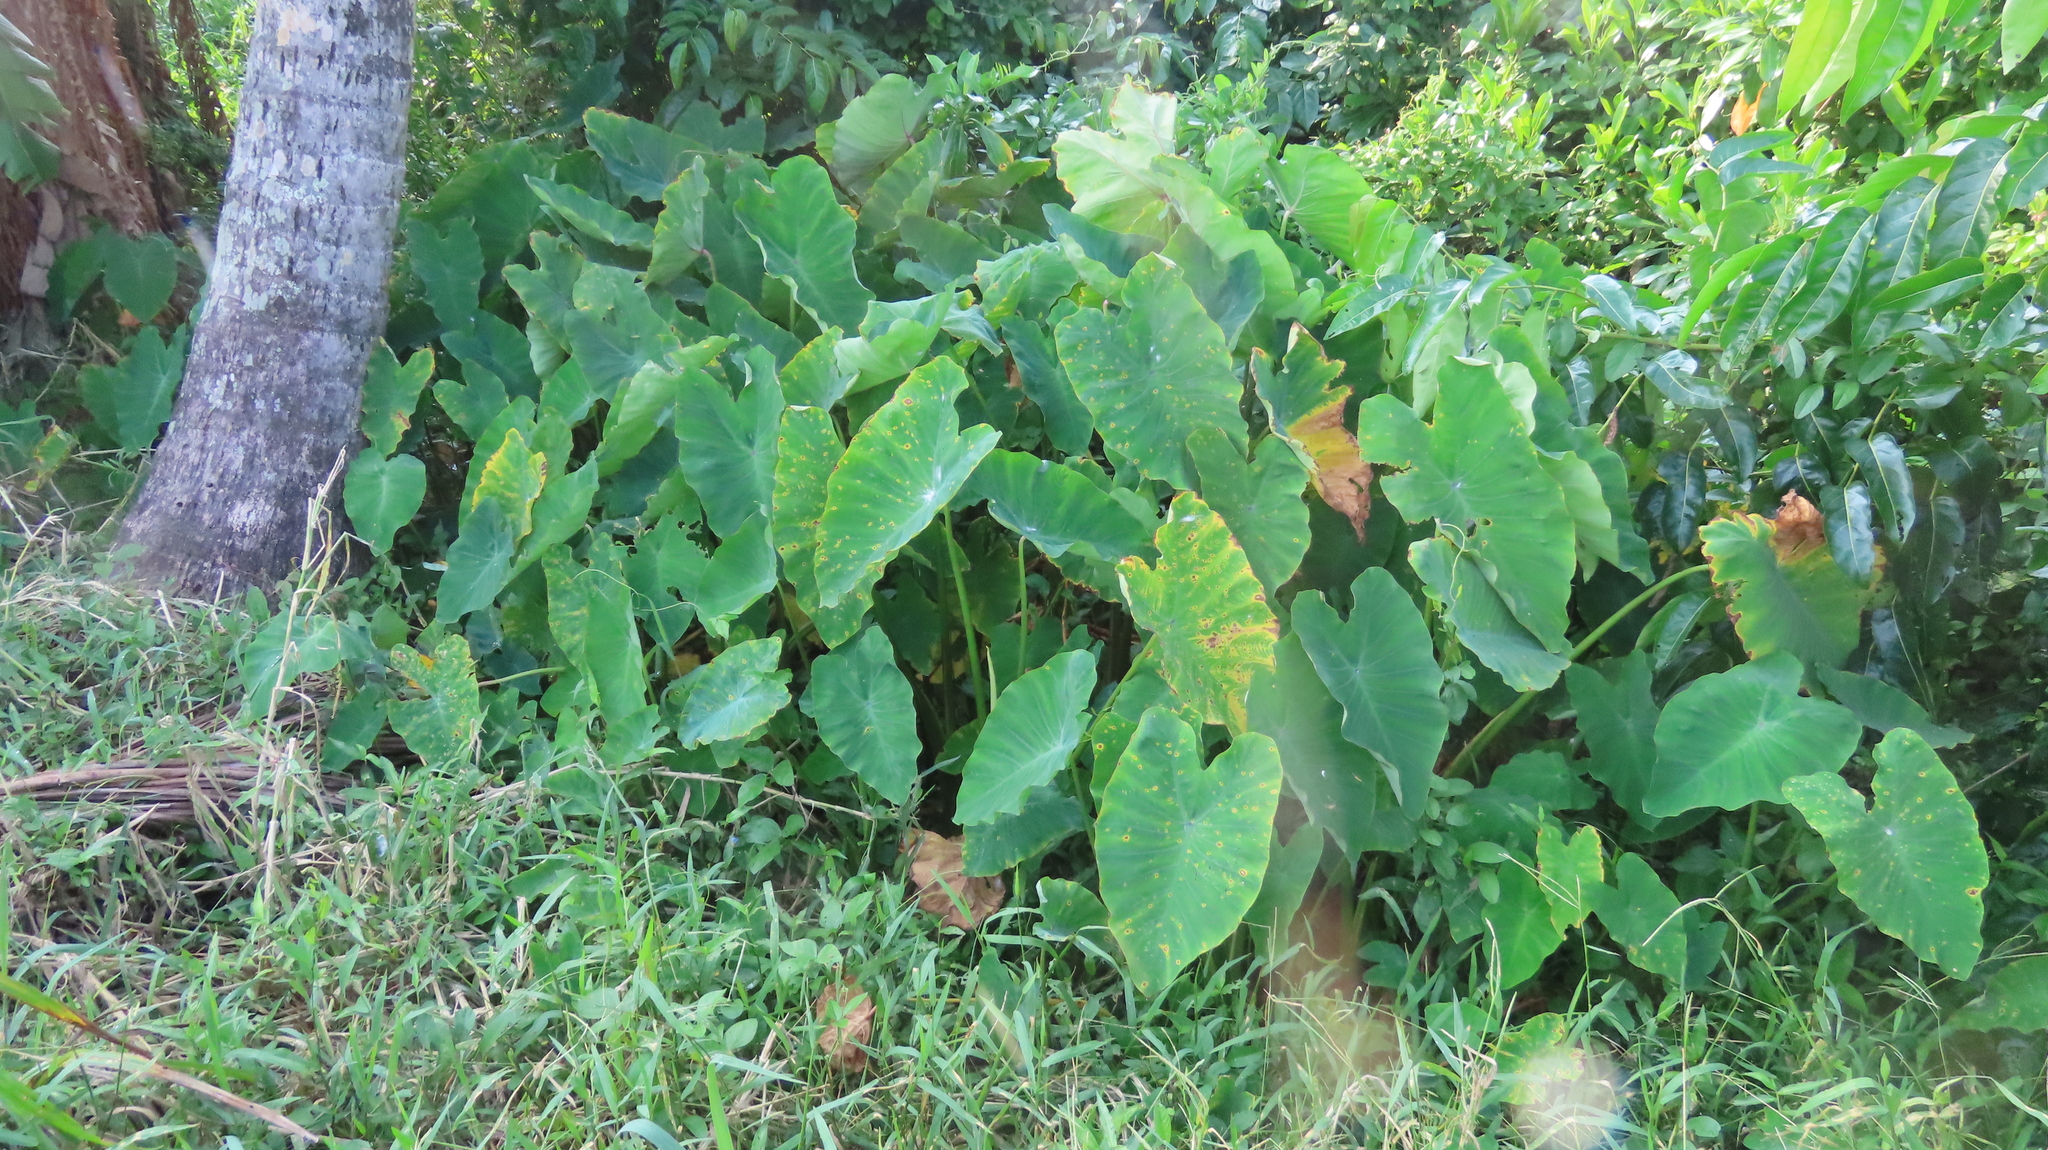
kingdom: Plantae
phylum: Tracheophyta
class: Liliopsida
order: Alismatales
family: Araceae
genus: Colocasia
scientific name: Colocasia esculenta
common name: Taro
